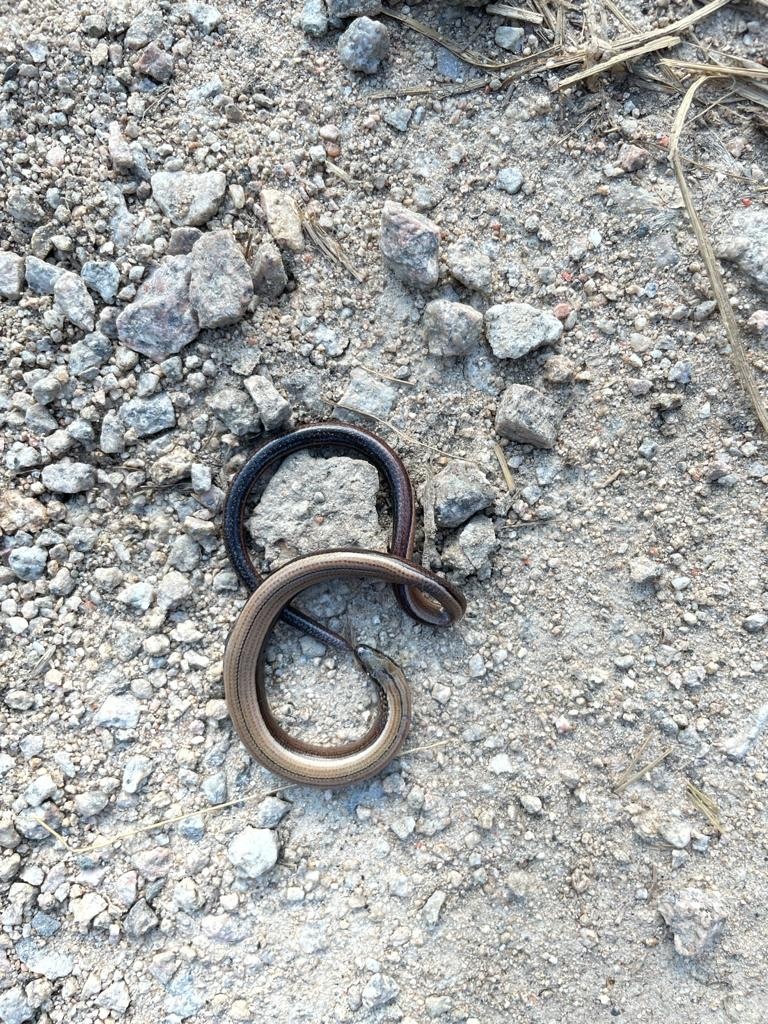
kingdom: Animalia
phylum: Chordata
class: Squamata
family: Anguidae
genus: Anguis
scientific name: Anguis fragilis
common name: Slow worm
